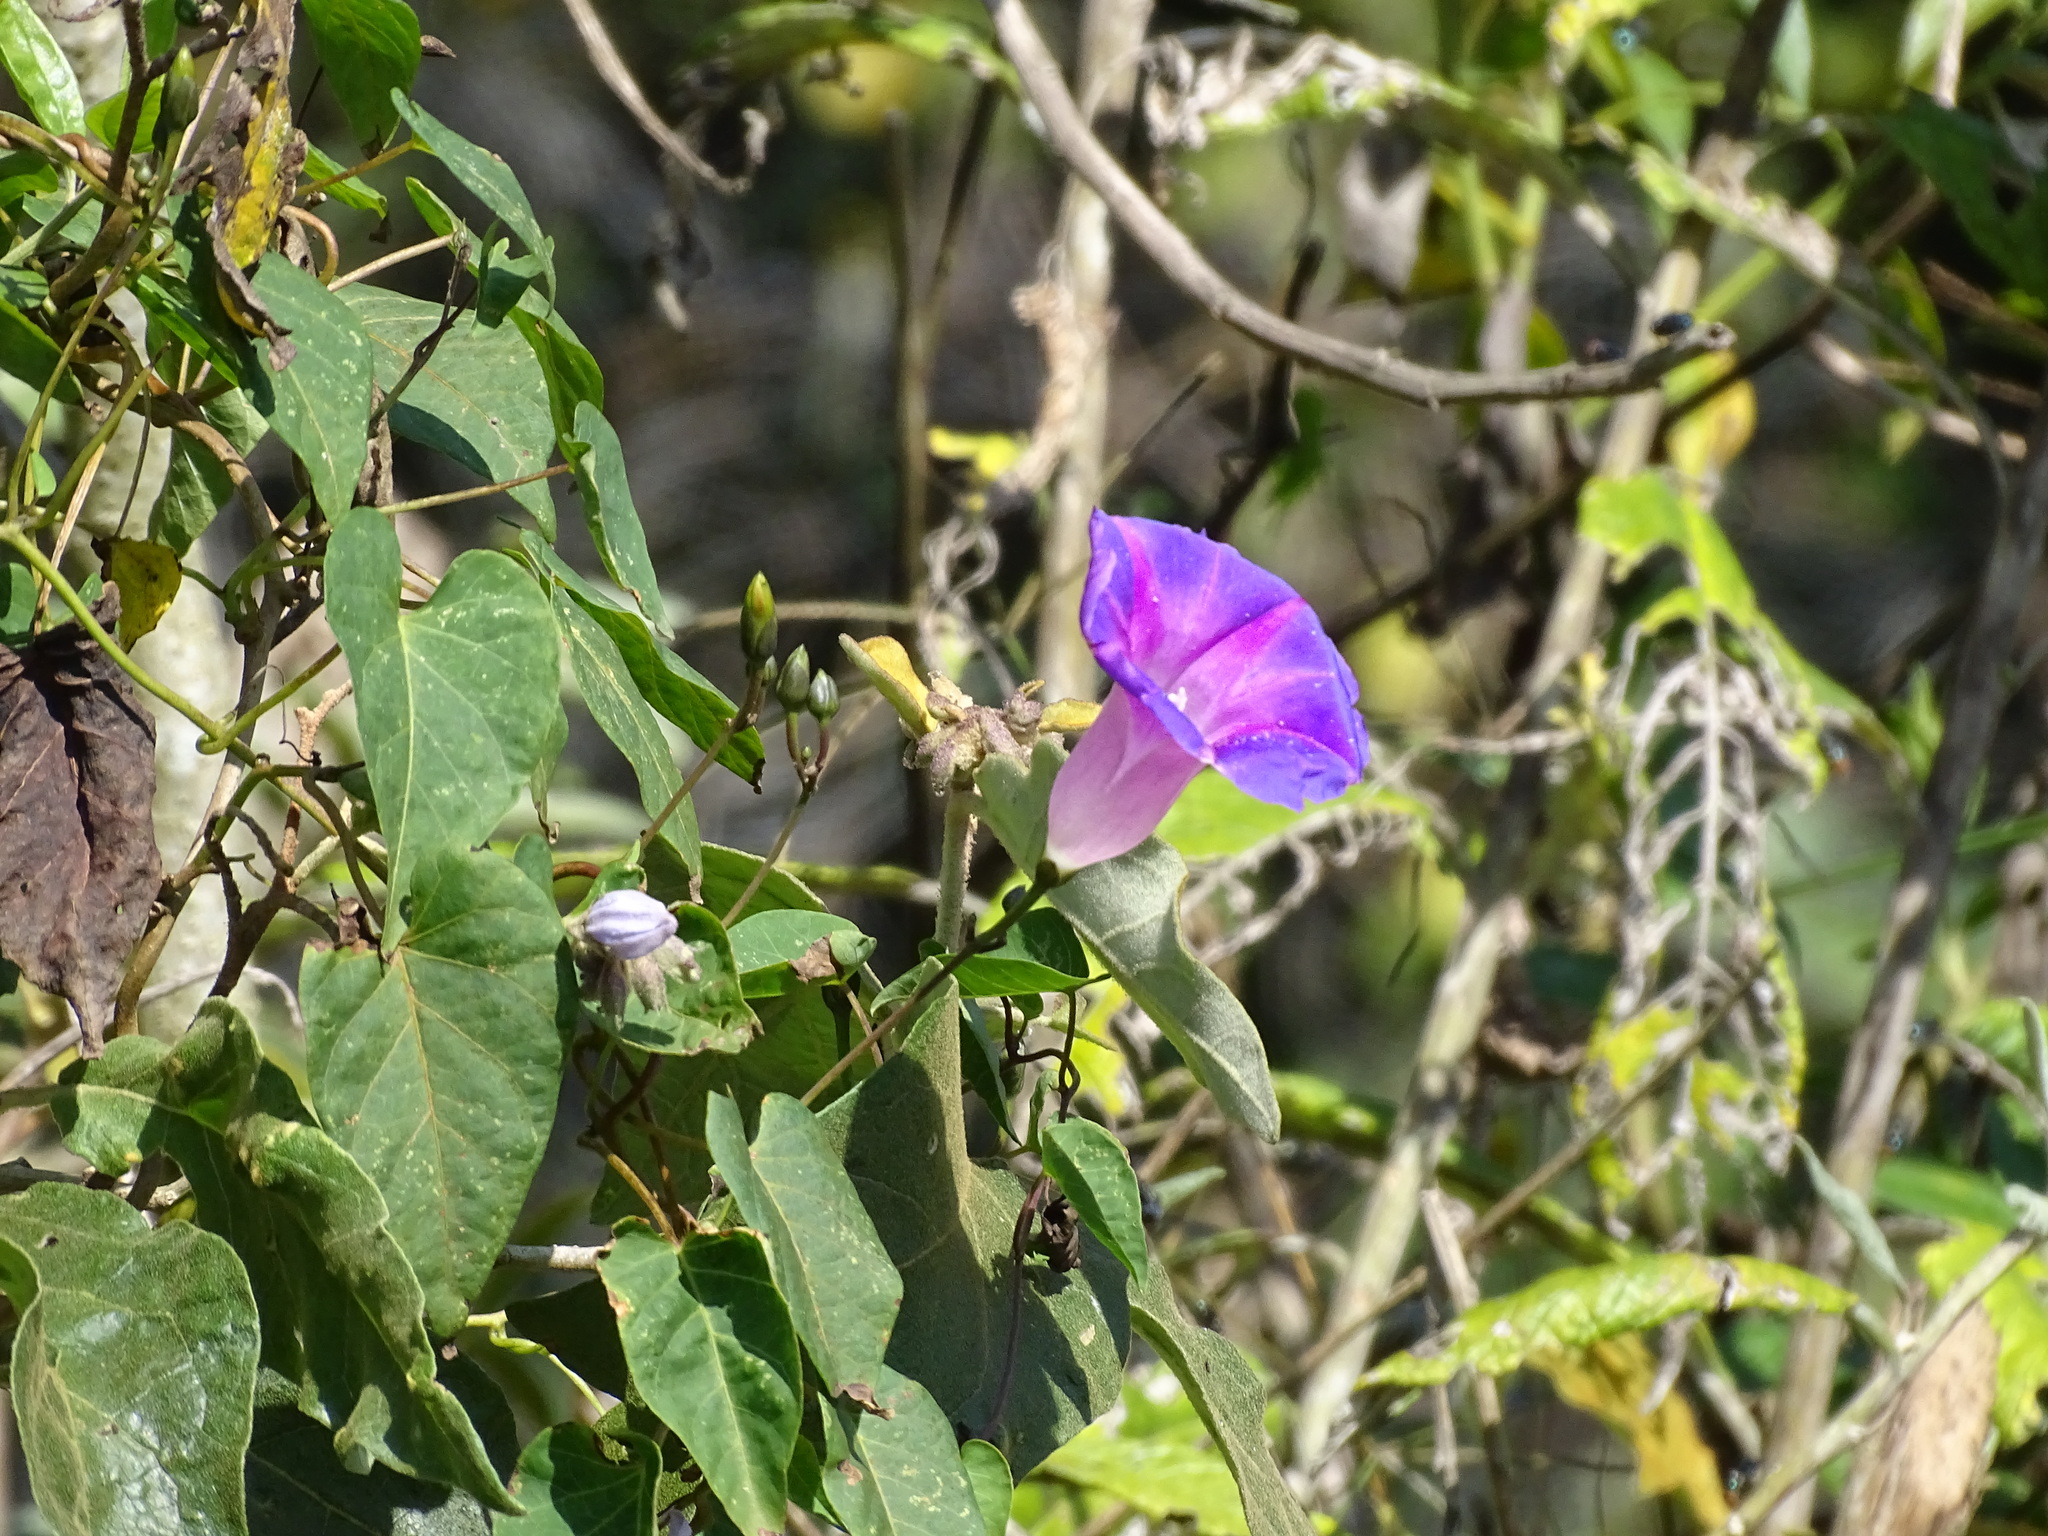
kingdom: Plantae
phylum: Tracheophyta
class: Magnoliopsida
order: Solanales
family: Convolvulaceae
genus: Ipomoea
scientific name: Ipomoea orizabensis
